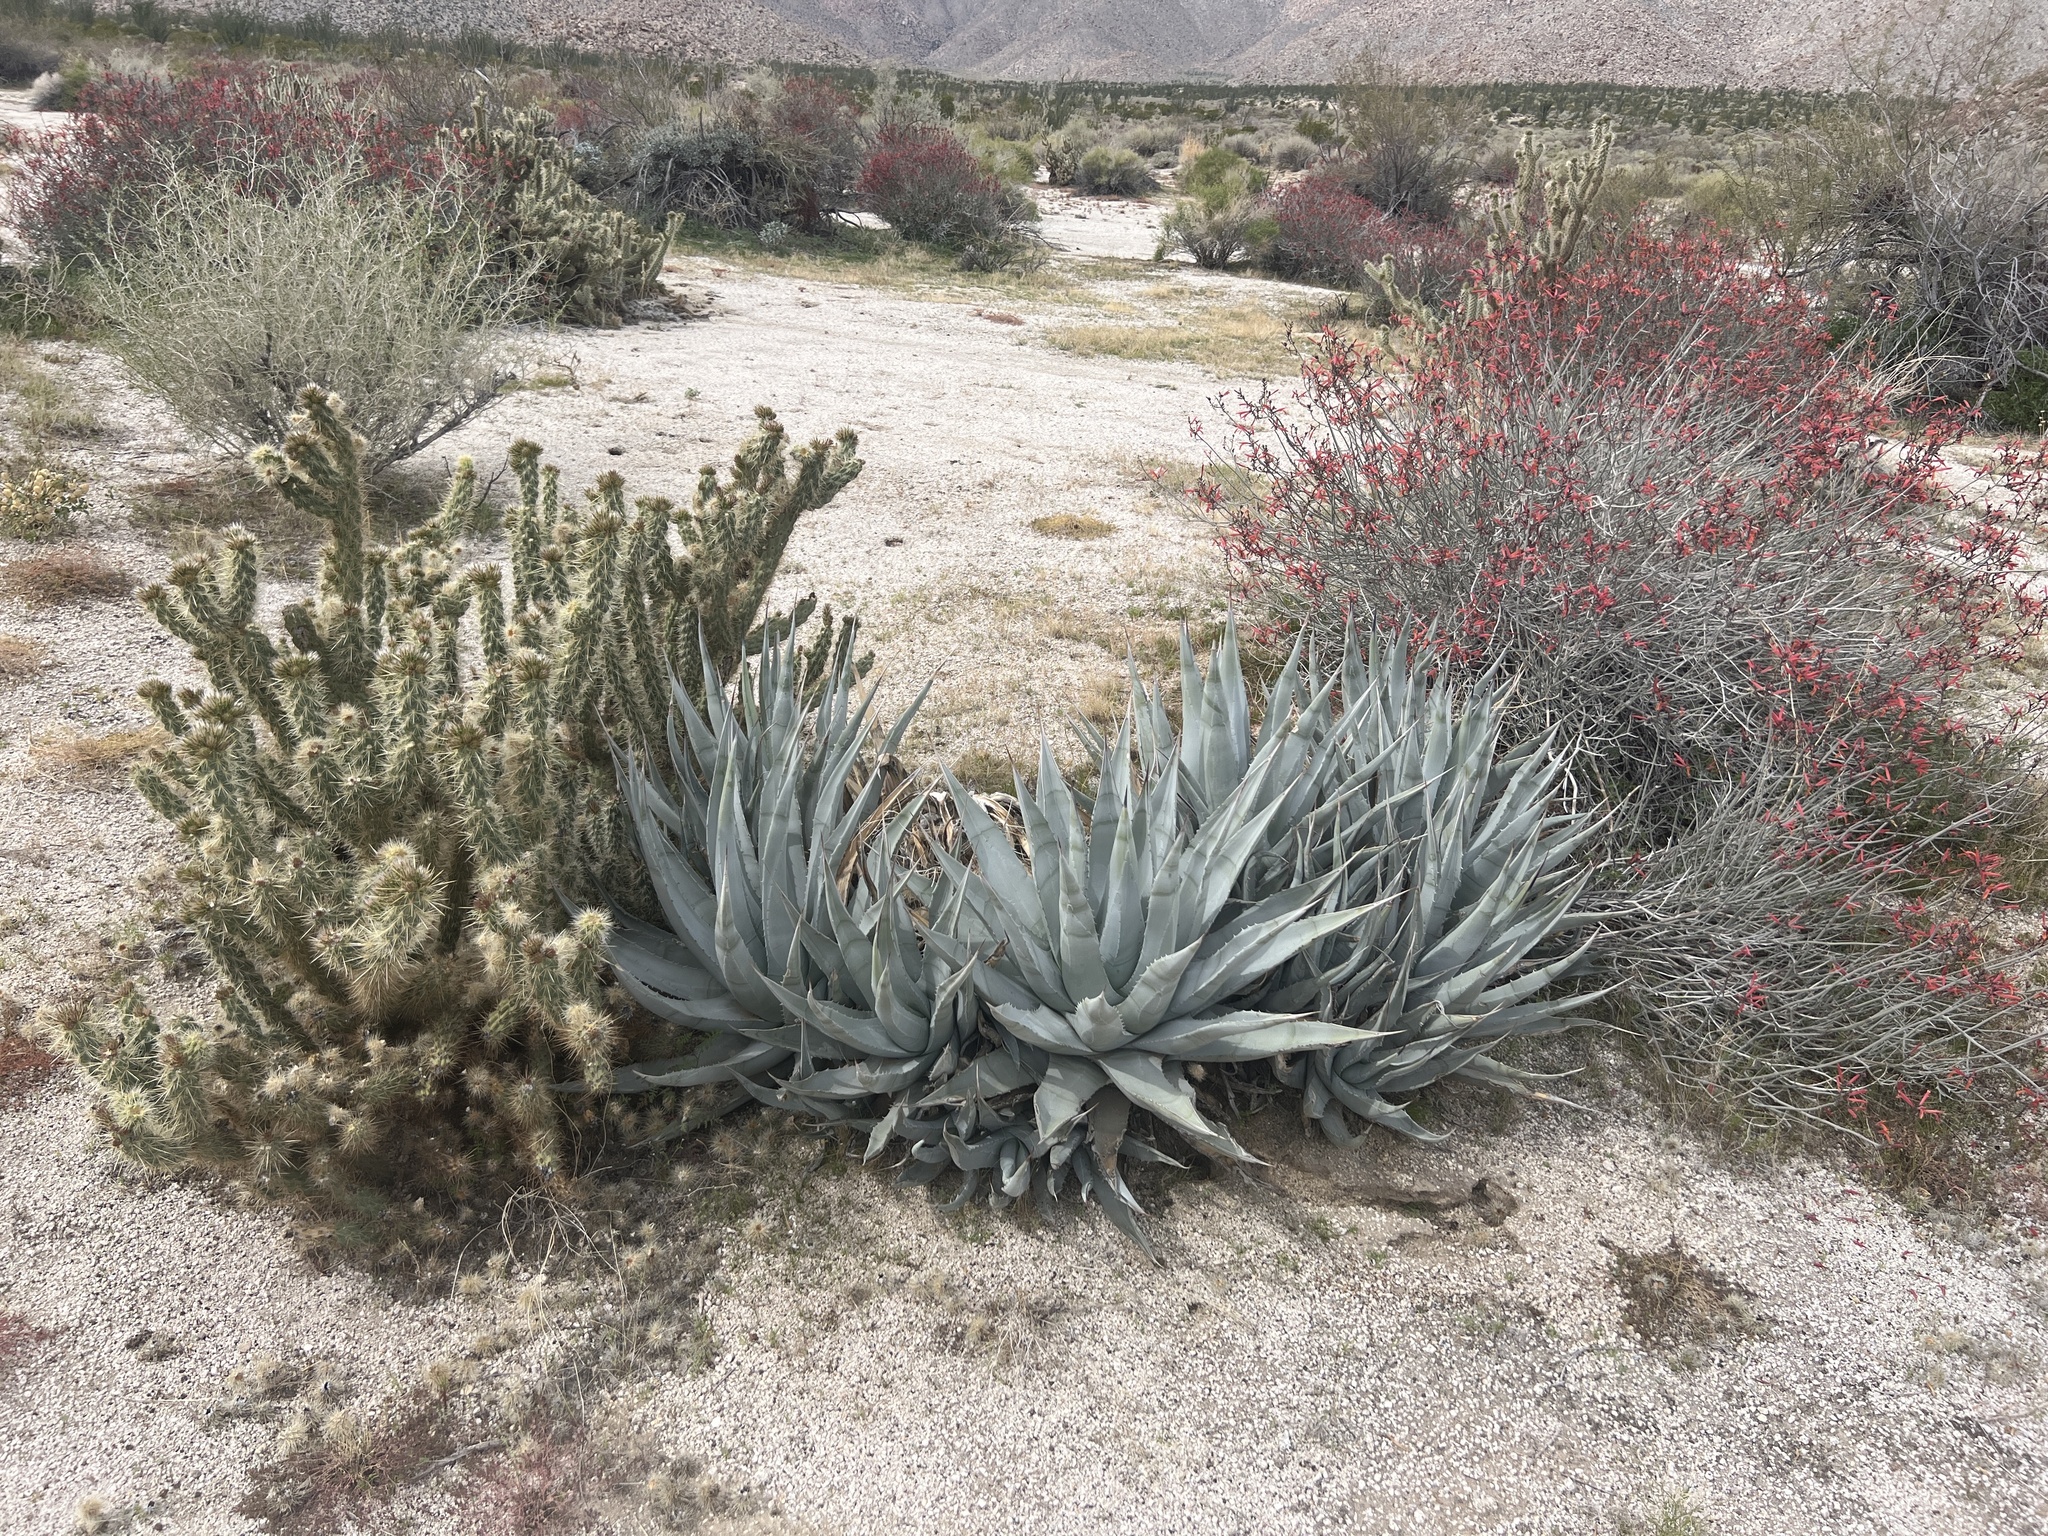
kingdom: Plantae
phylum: Tracheophyta
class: Liliopsida
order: Asparagales
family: Asparagaceae
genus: Agave
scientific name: Agave deserti
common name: Desert agave
